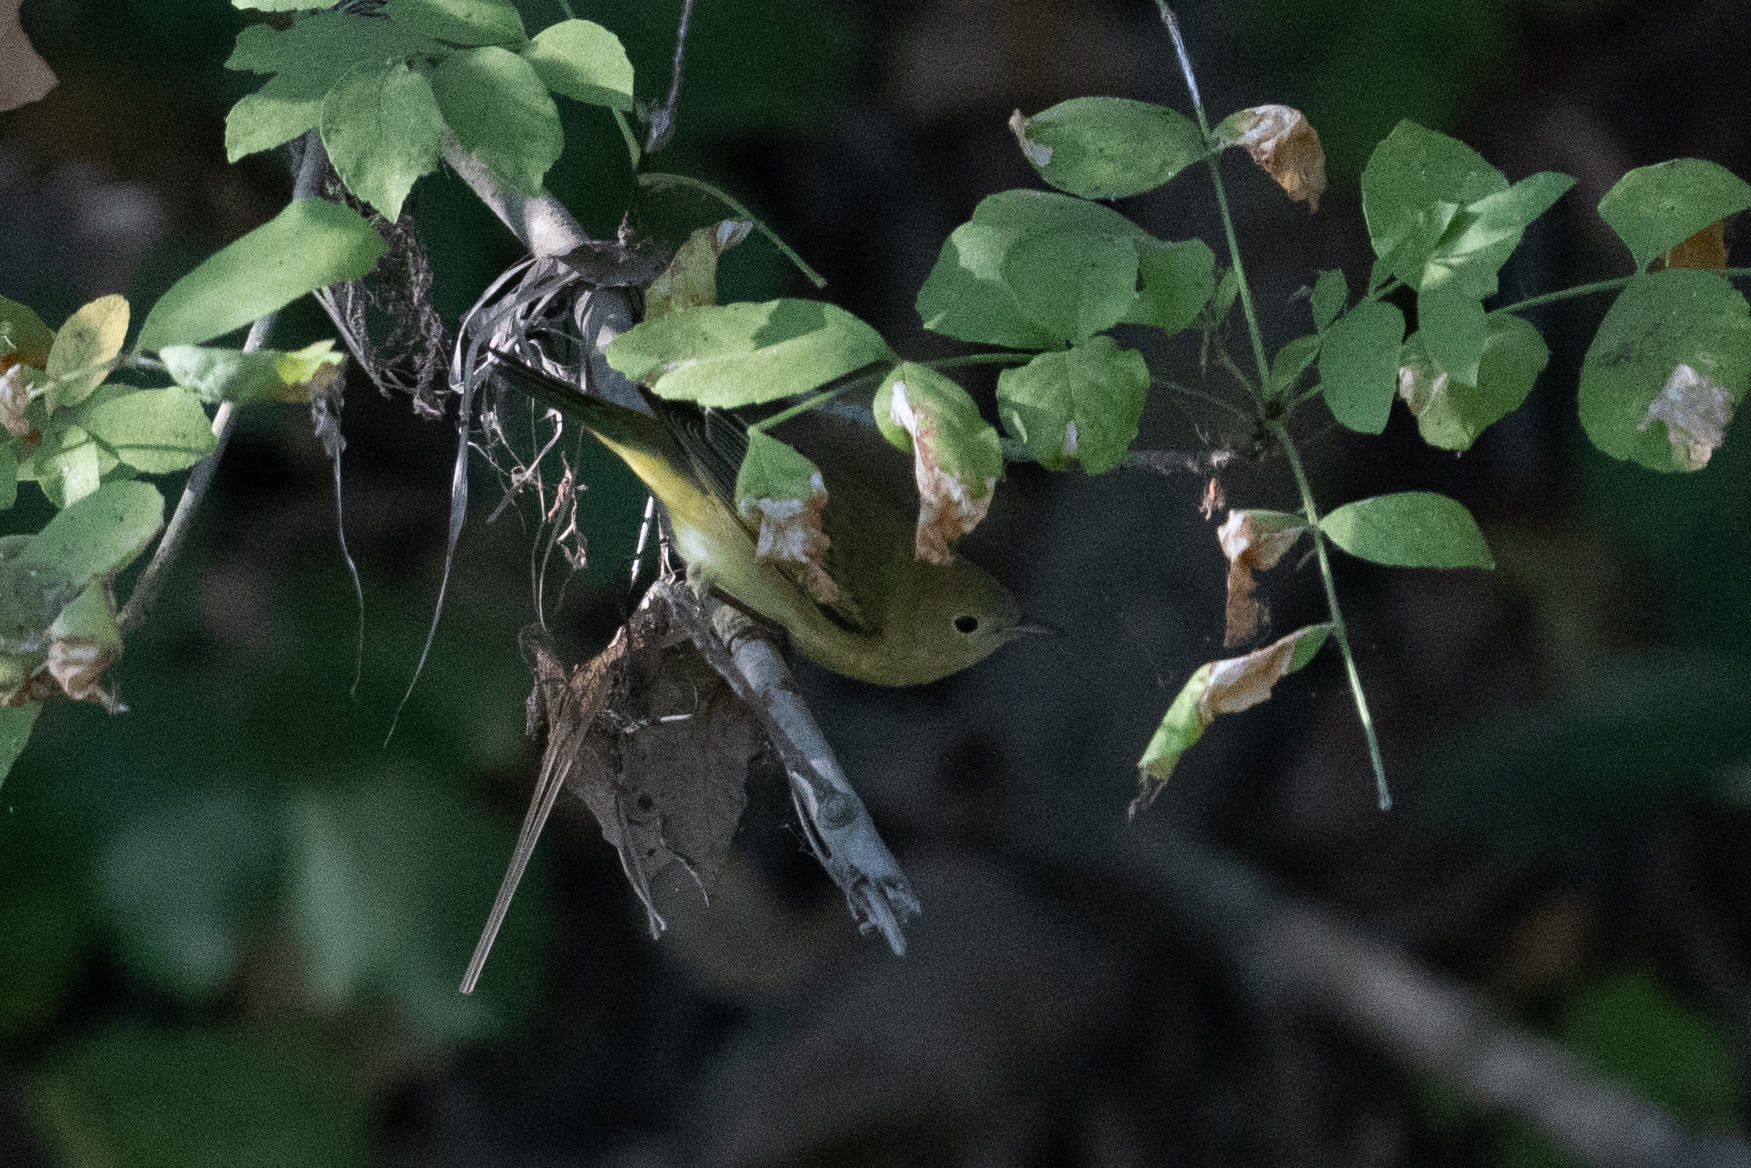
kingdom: Animalia
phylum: Chordata
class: Aves
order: Passeriformes
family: Parulidae
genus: Setophaga
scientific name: Setophaga petechia
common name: Yellow warbler
